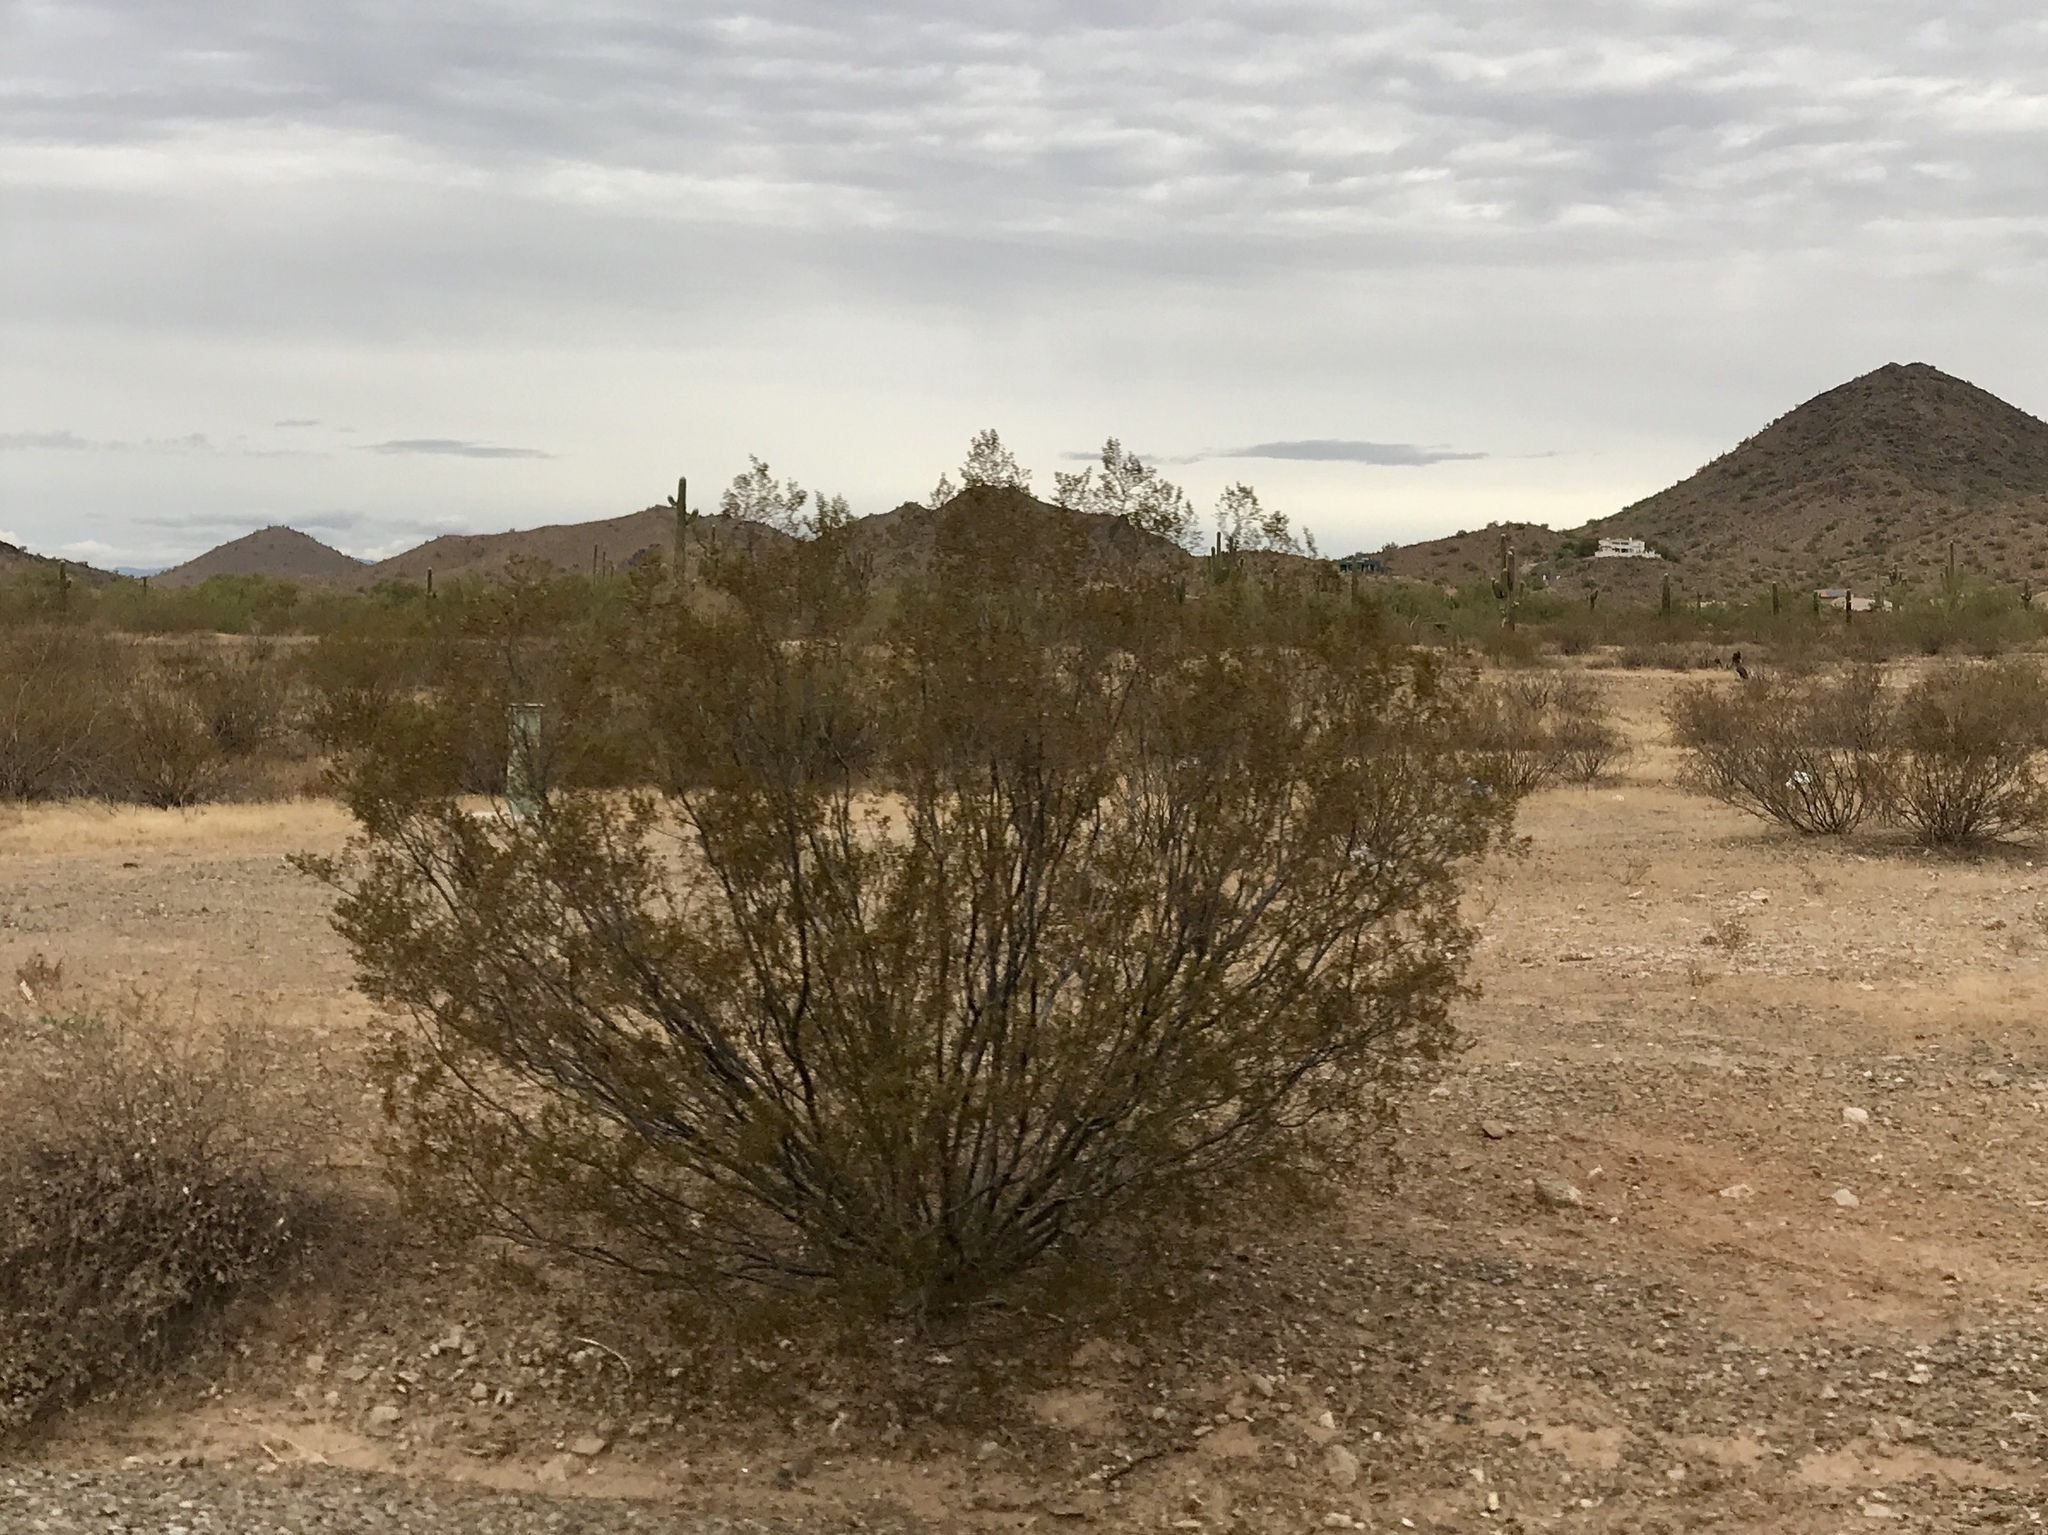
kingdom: Plantae
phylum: Tracheophyta
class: Magnoliopsida
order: Zygophyllales
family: Zygophyllaceae
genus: Larrea
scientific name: Larrea tridentata
